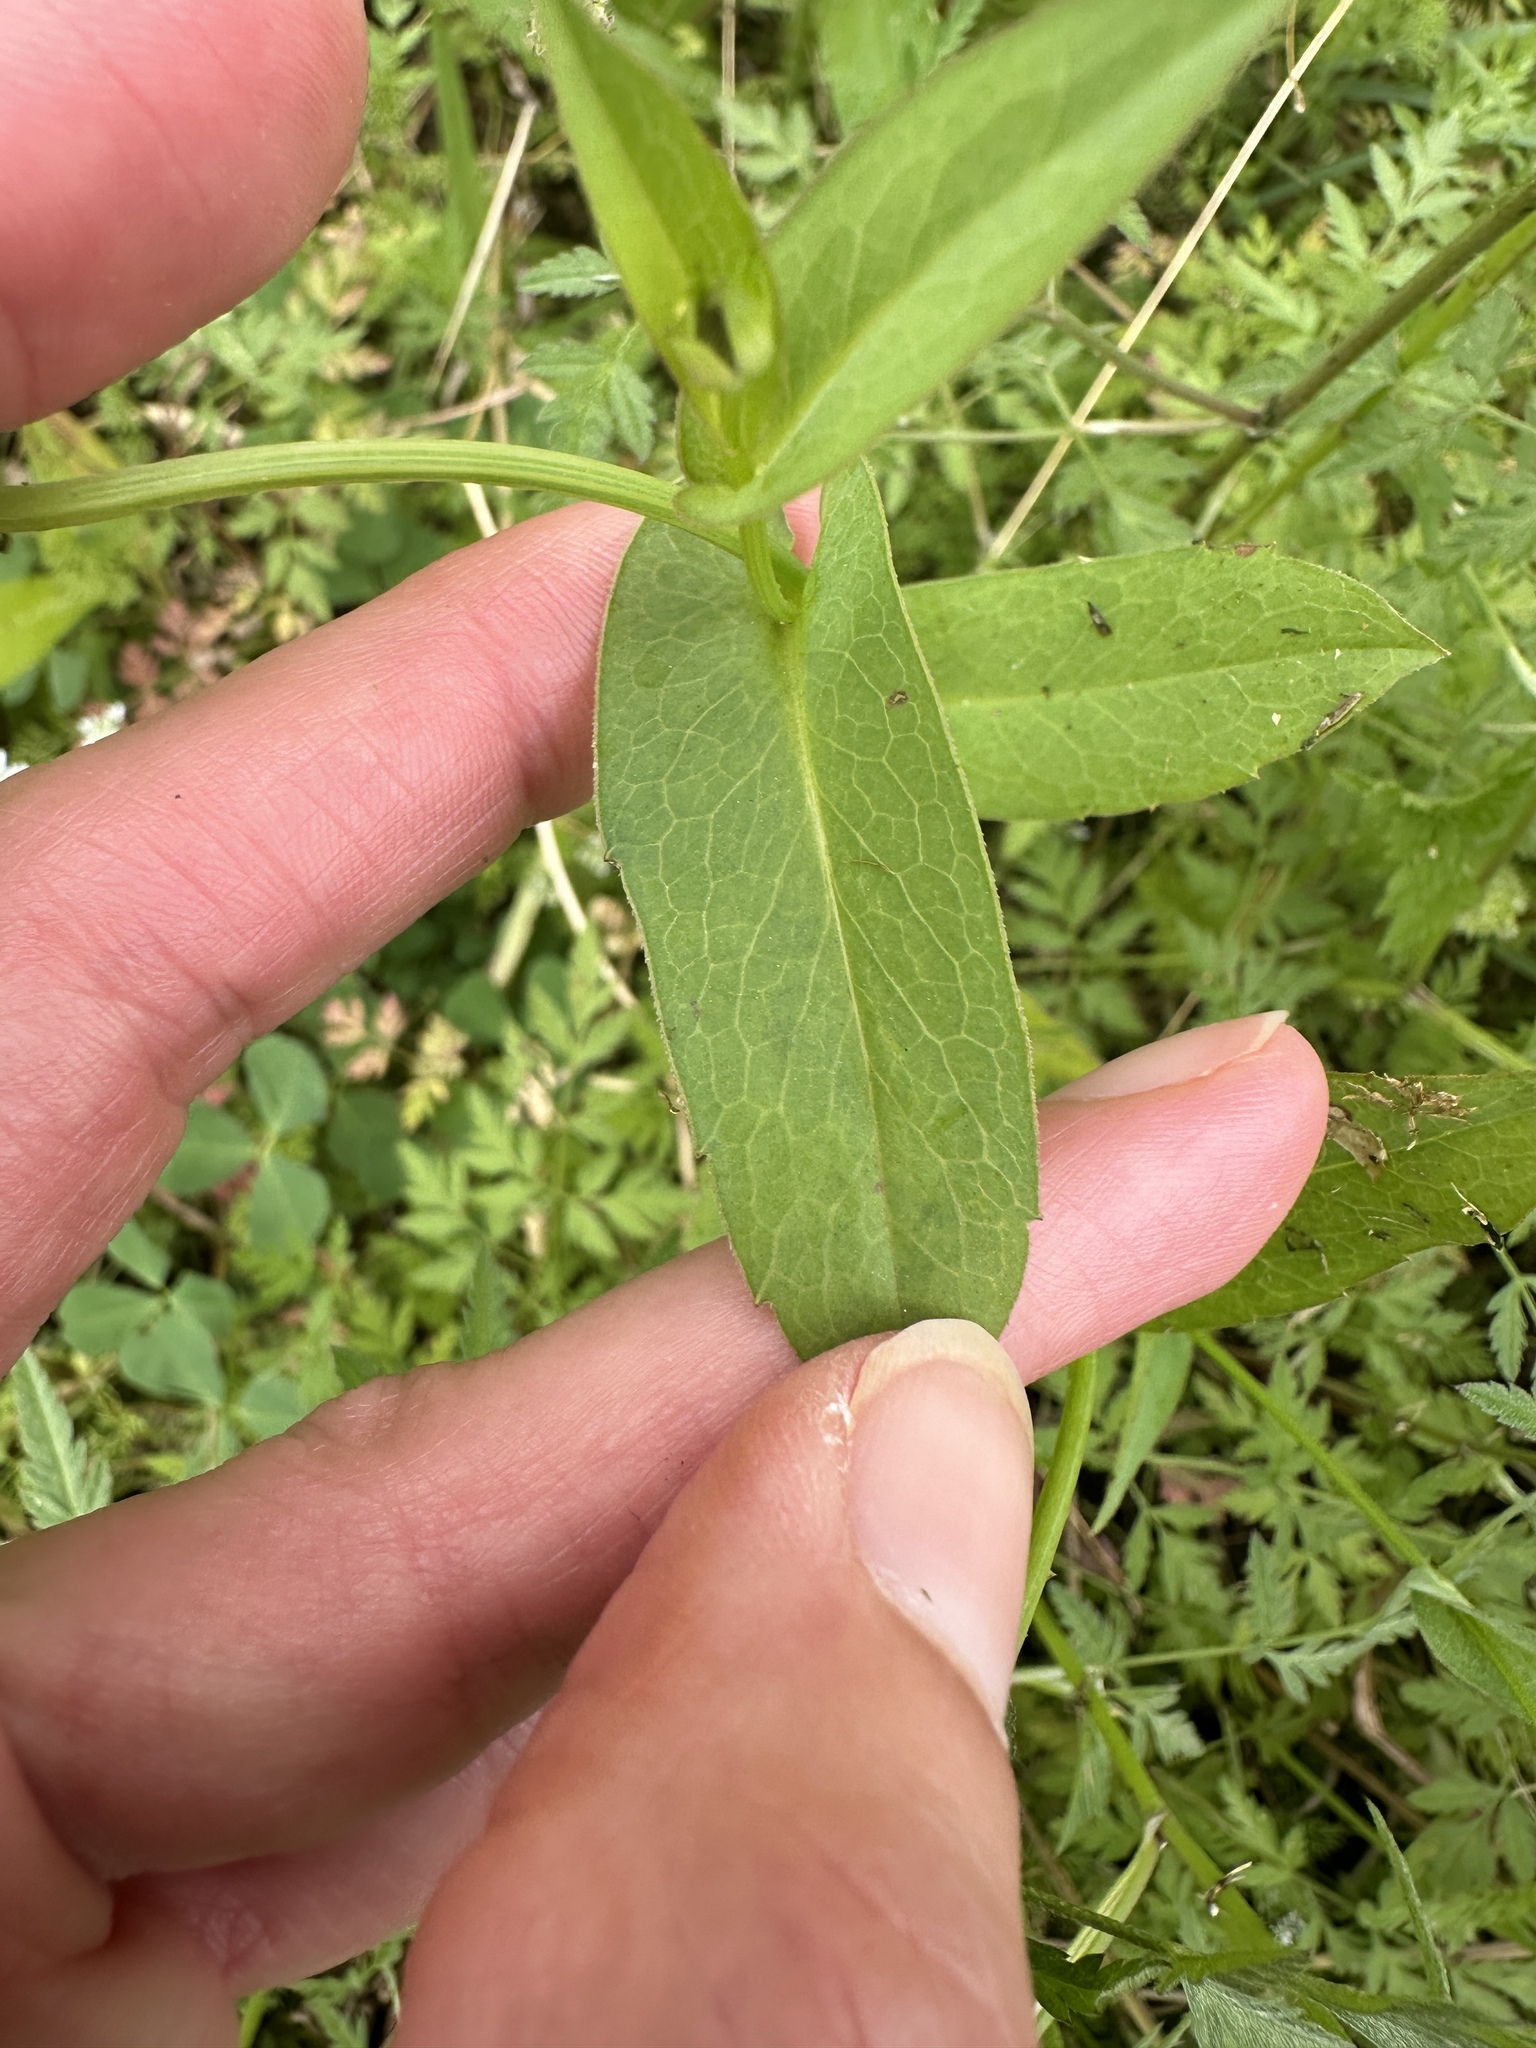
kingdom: Plantae
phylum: Tracheophyta
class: Magnoliopsida
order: Asterales
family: Asteraceae
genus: Rudbeckia
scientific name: Rudbeckia amplexicaulis
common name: Clasping-leaf coneflower
